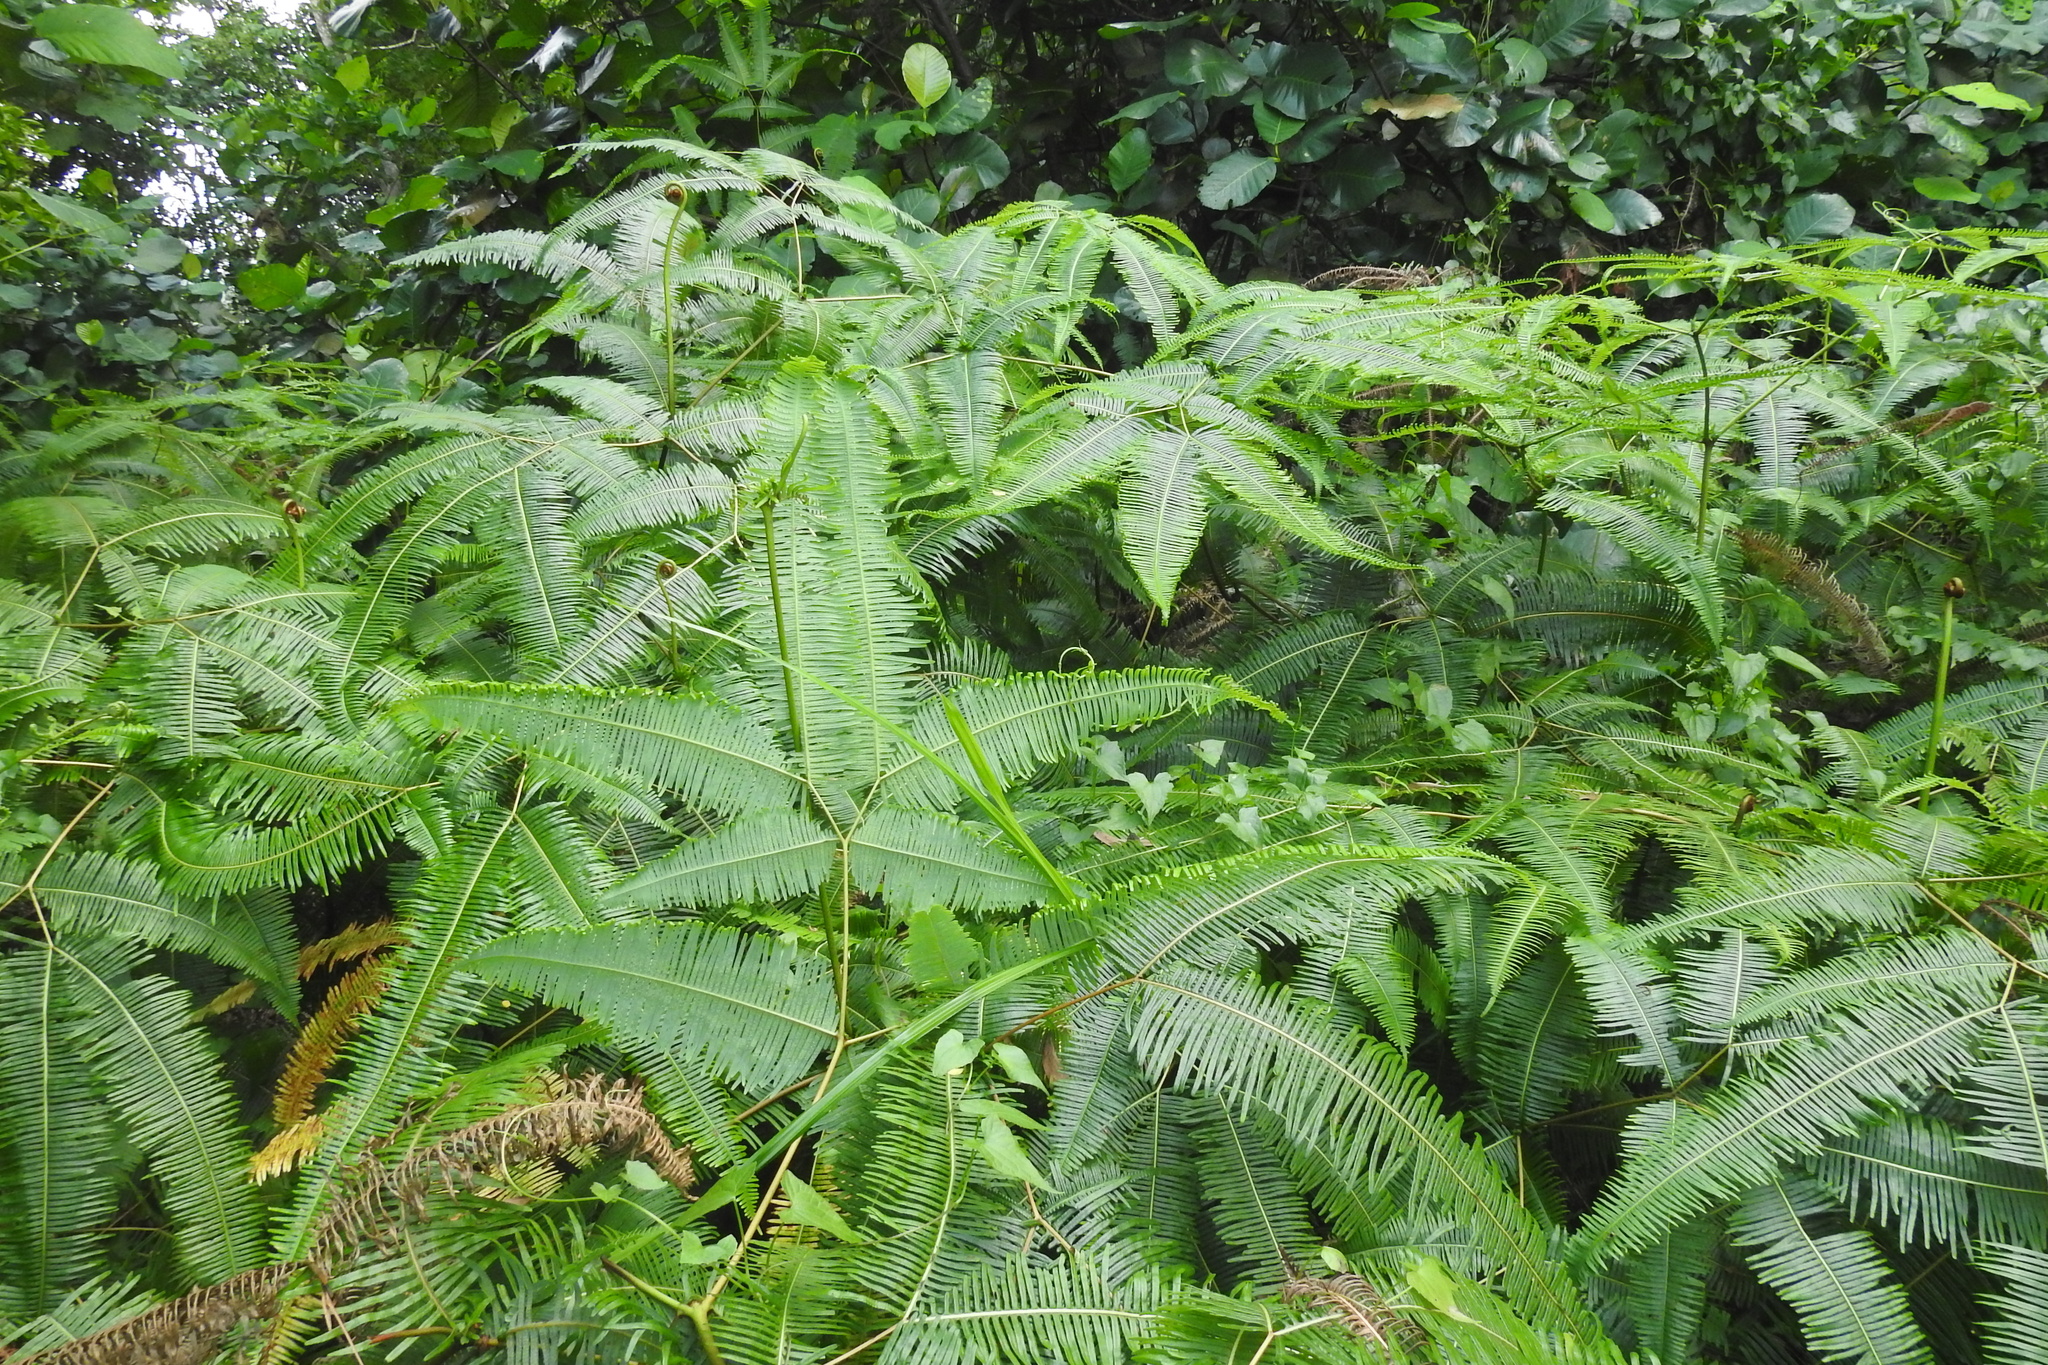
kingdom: Plantae
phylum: Tracheophyta
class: Polypodiopsida
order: Gleicheniales
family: Gleicheniaceae
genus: Dicranopteris
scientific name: Dicranopteris curranii
